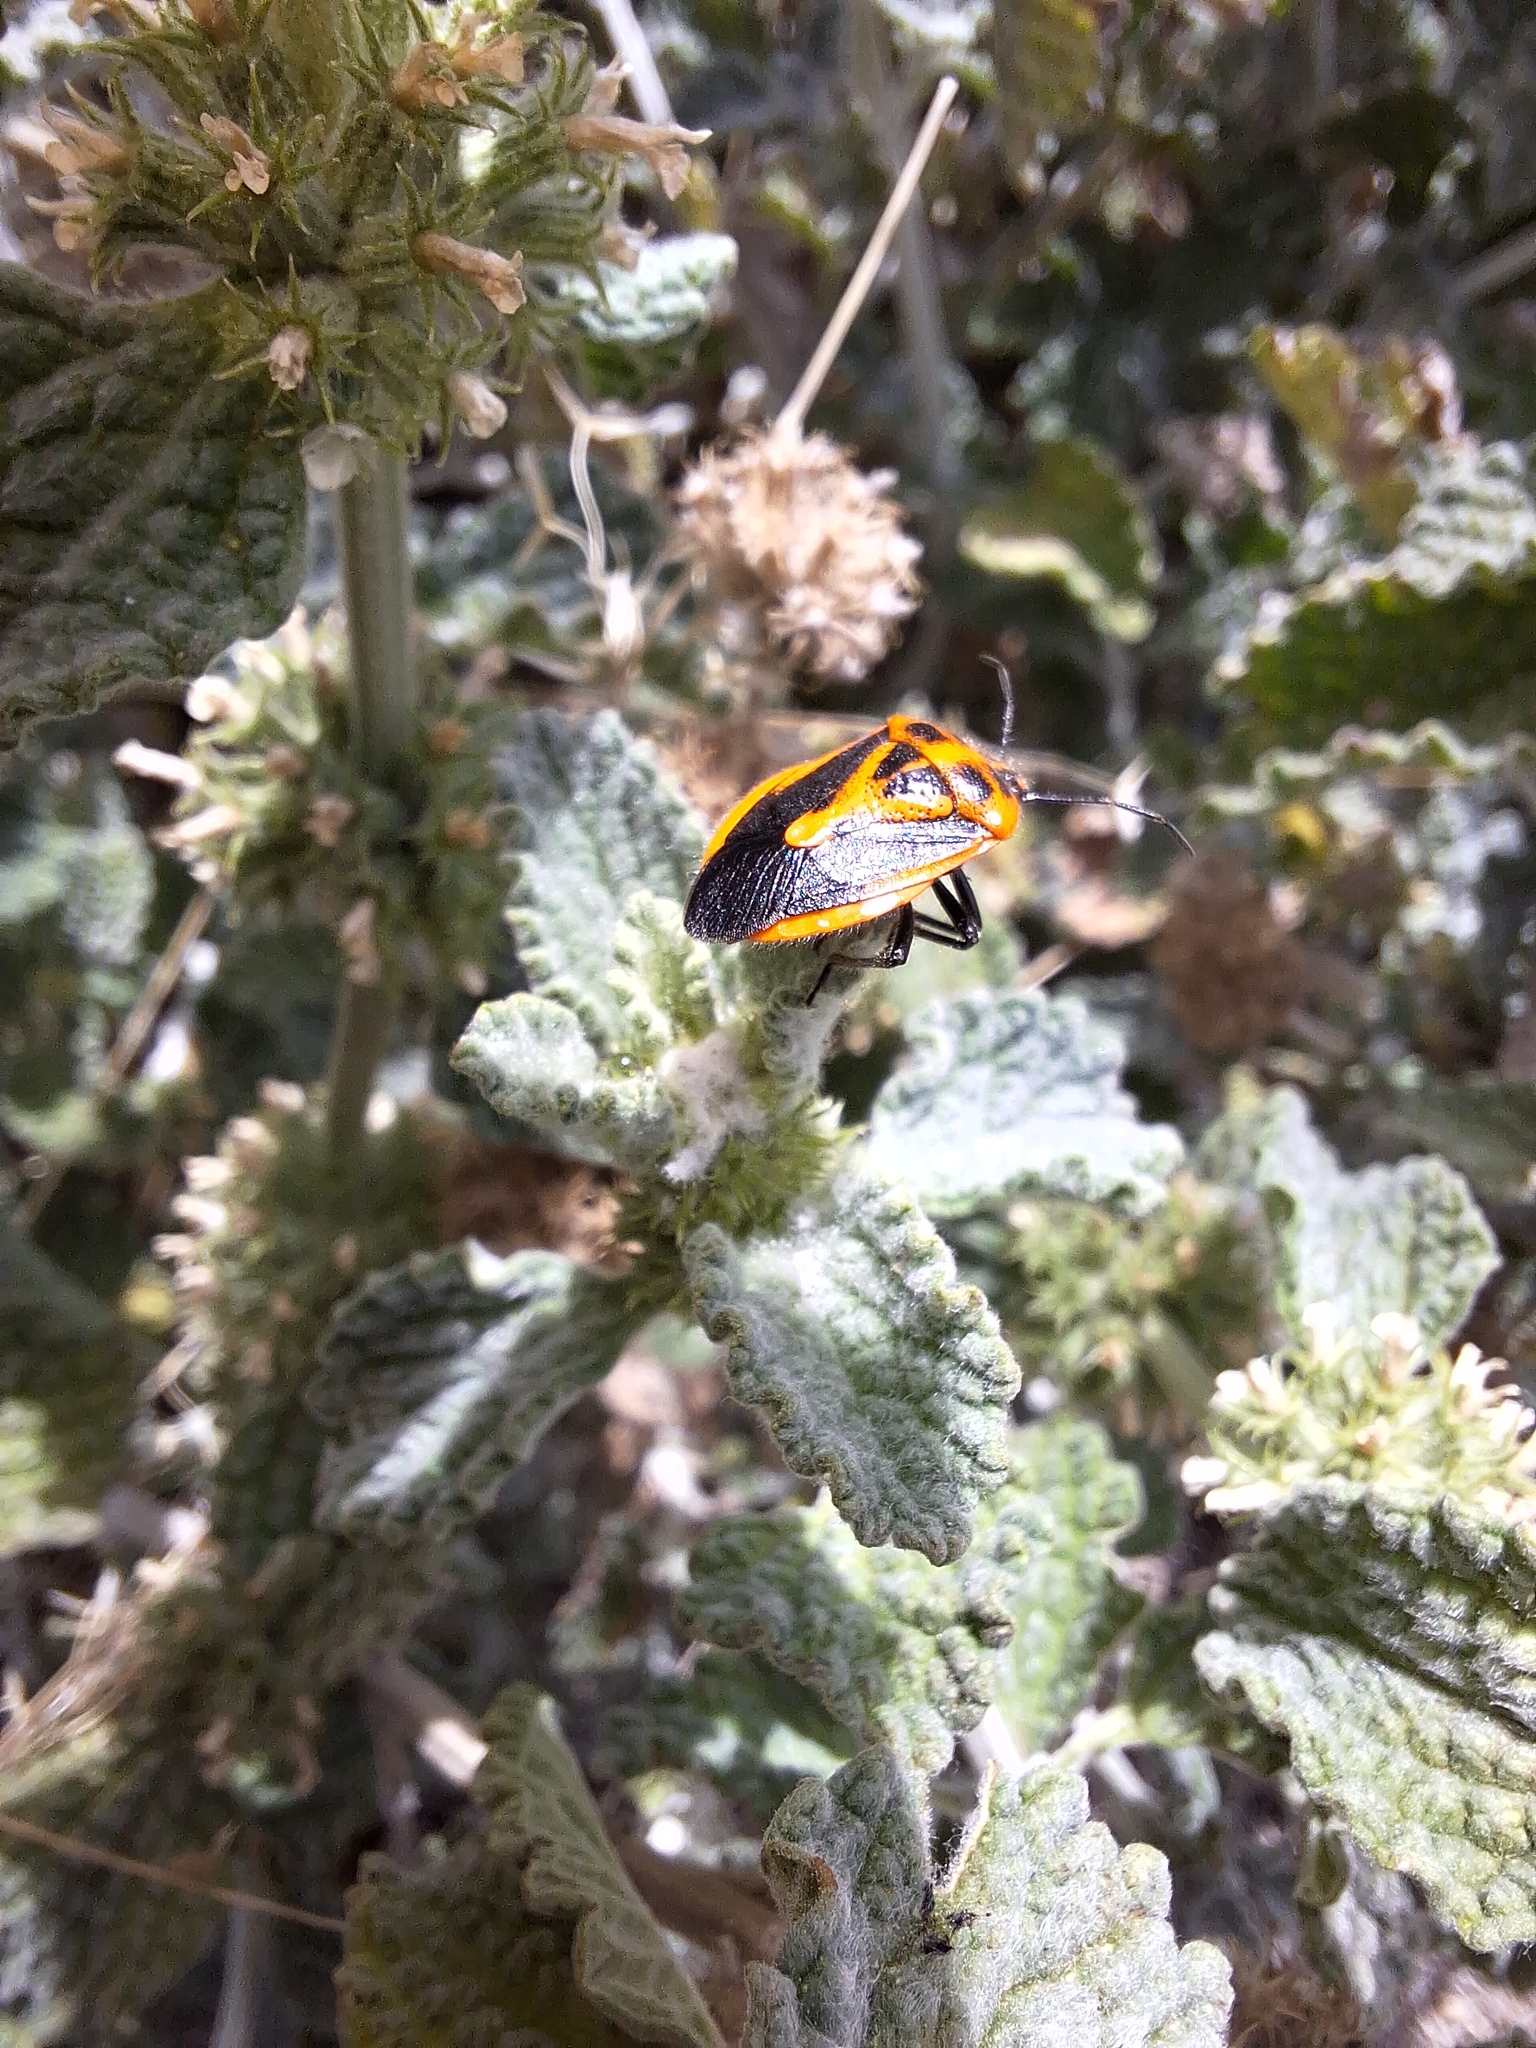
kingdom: Animalia
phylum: Arthropoda
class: Insecta
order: Hemiptera
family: Pentatomidae
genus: Agonoscelis
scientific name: Agonoscelis rutila
